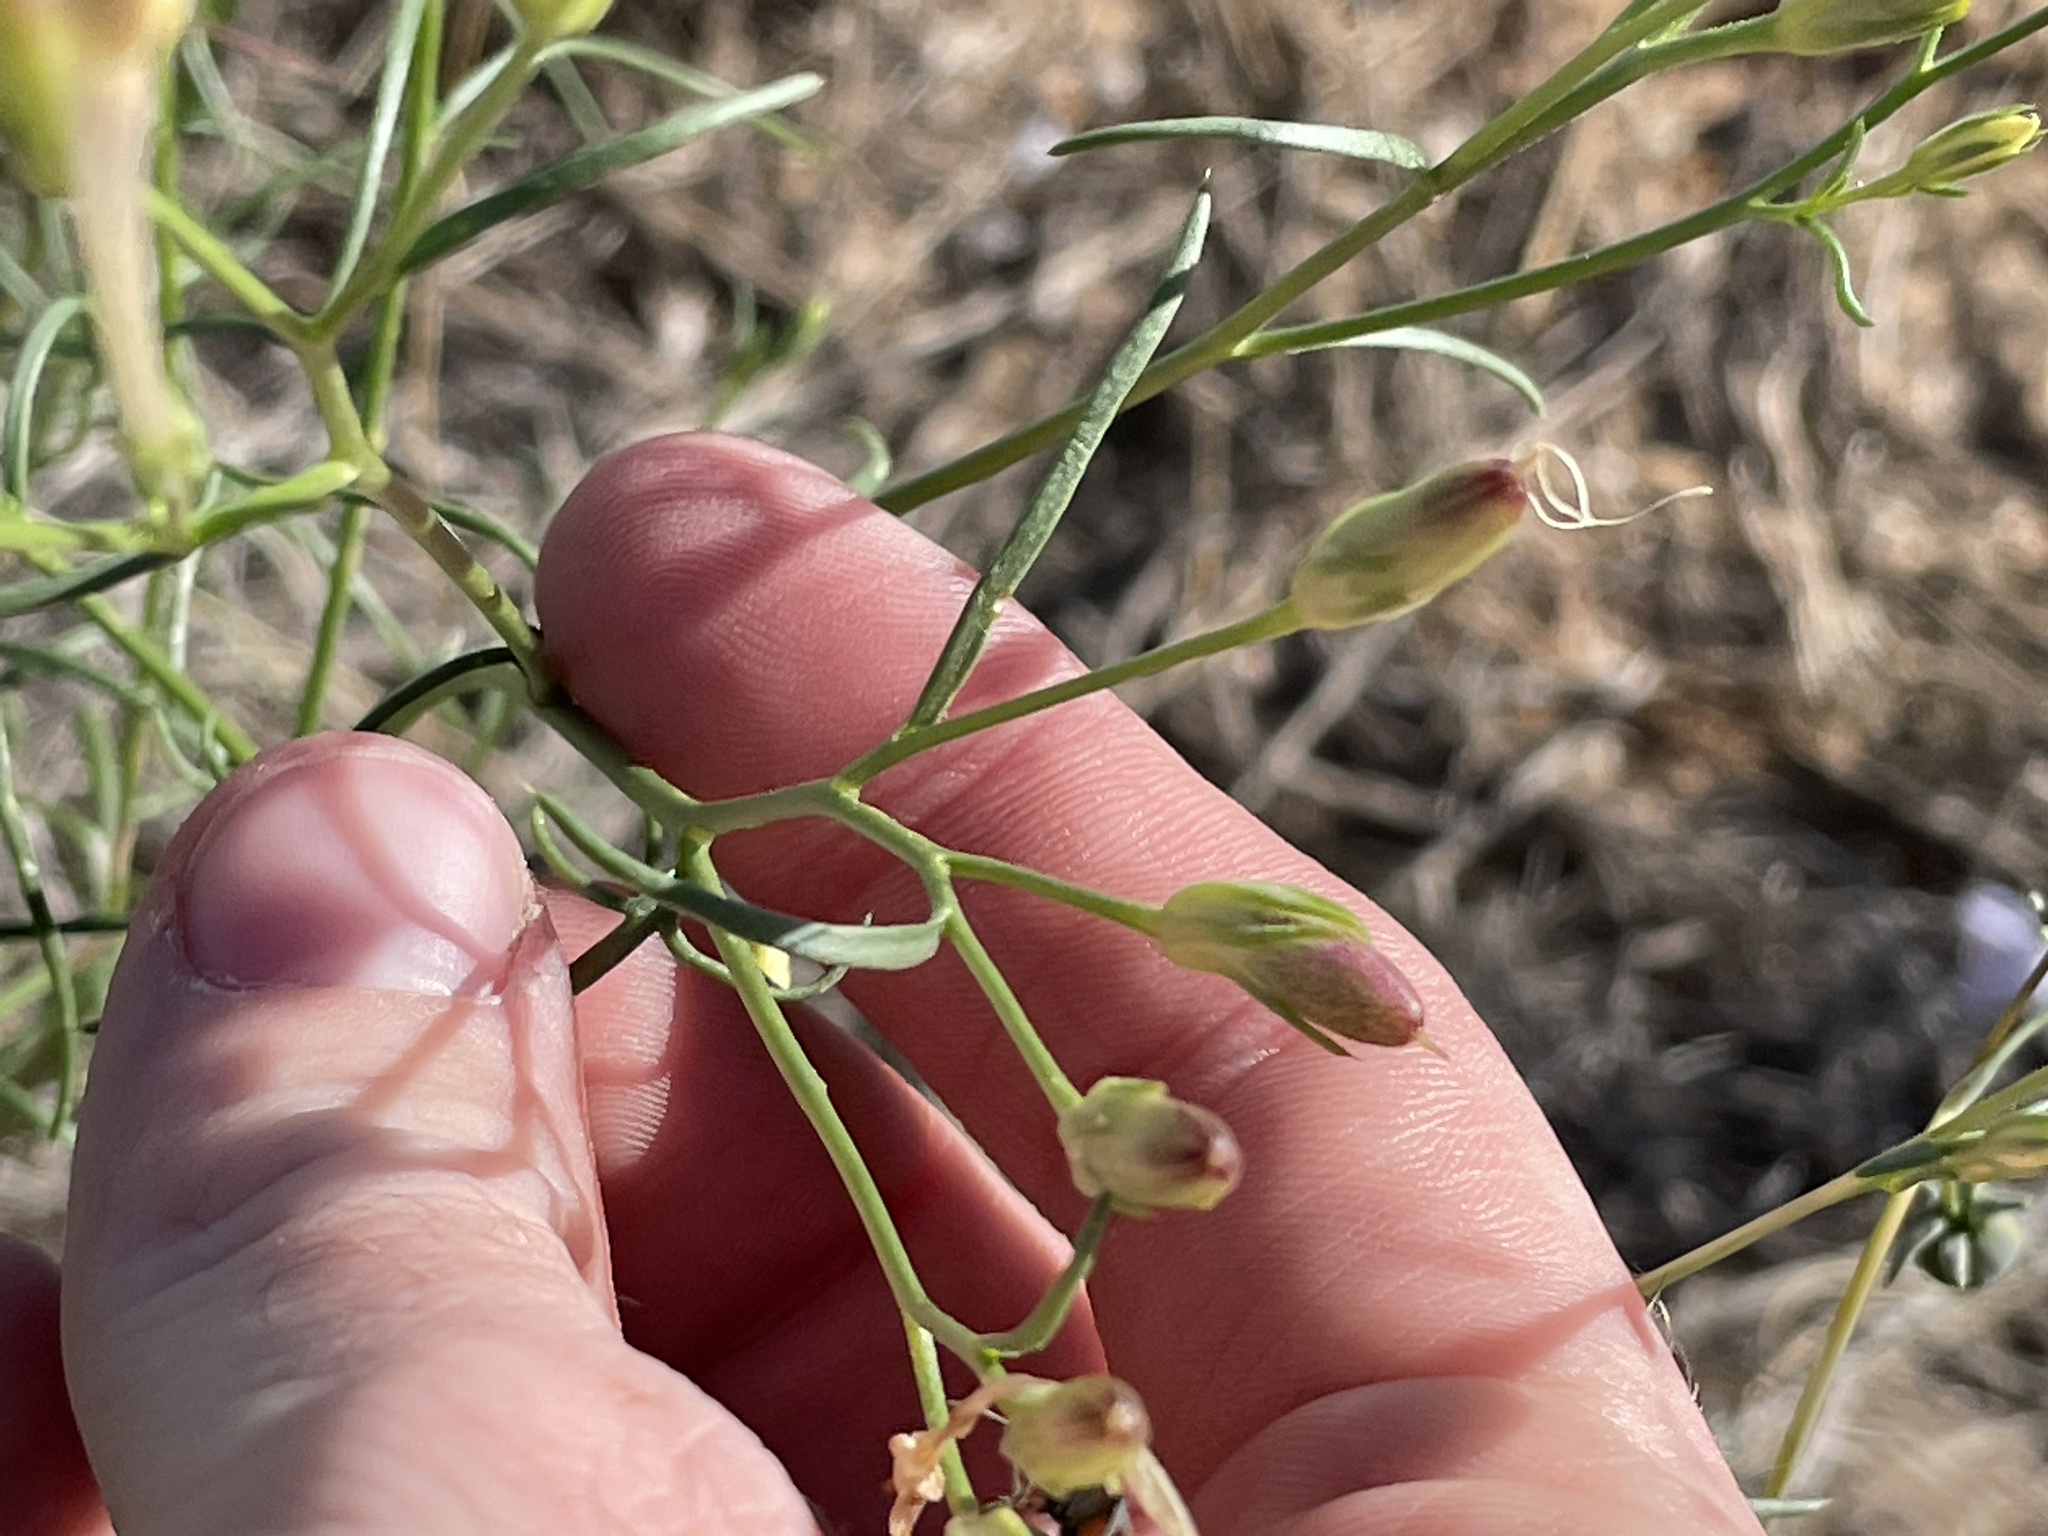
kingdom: Plantae
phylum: Tracheophyta
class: Magnoliopsida
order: Ericales
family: Polemoniaceae
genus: Ipomopsis
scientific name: Ipomopsis longiflora
